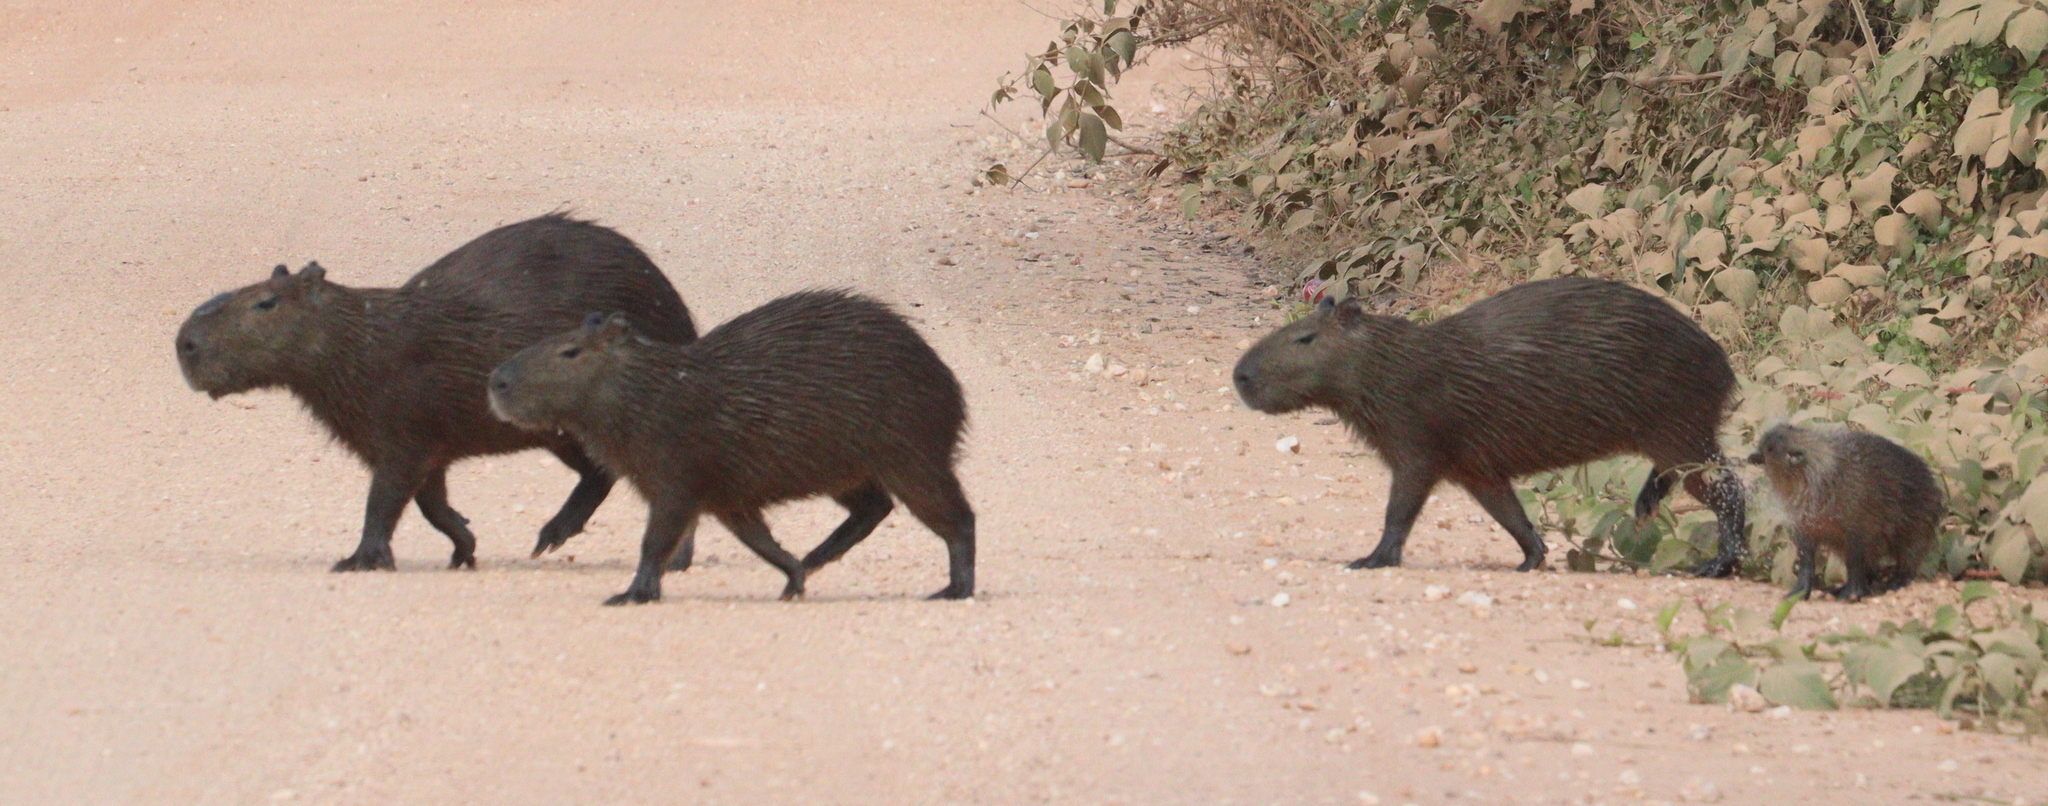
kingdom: Animalia
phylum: Chordata
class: Mammalia
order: Rodentia
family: Caviidae
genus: Hydrochoerus
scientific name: Hydrochoerus hydrochaeris
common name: Capybara
